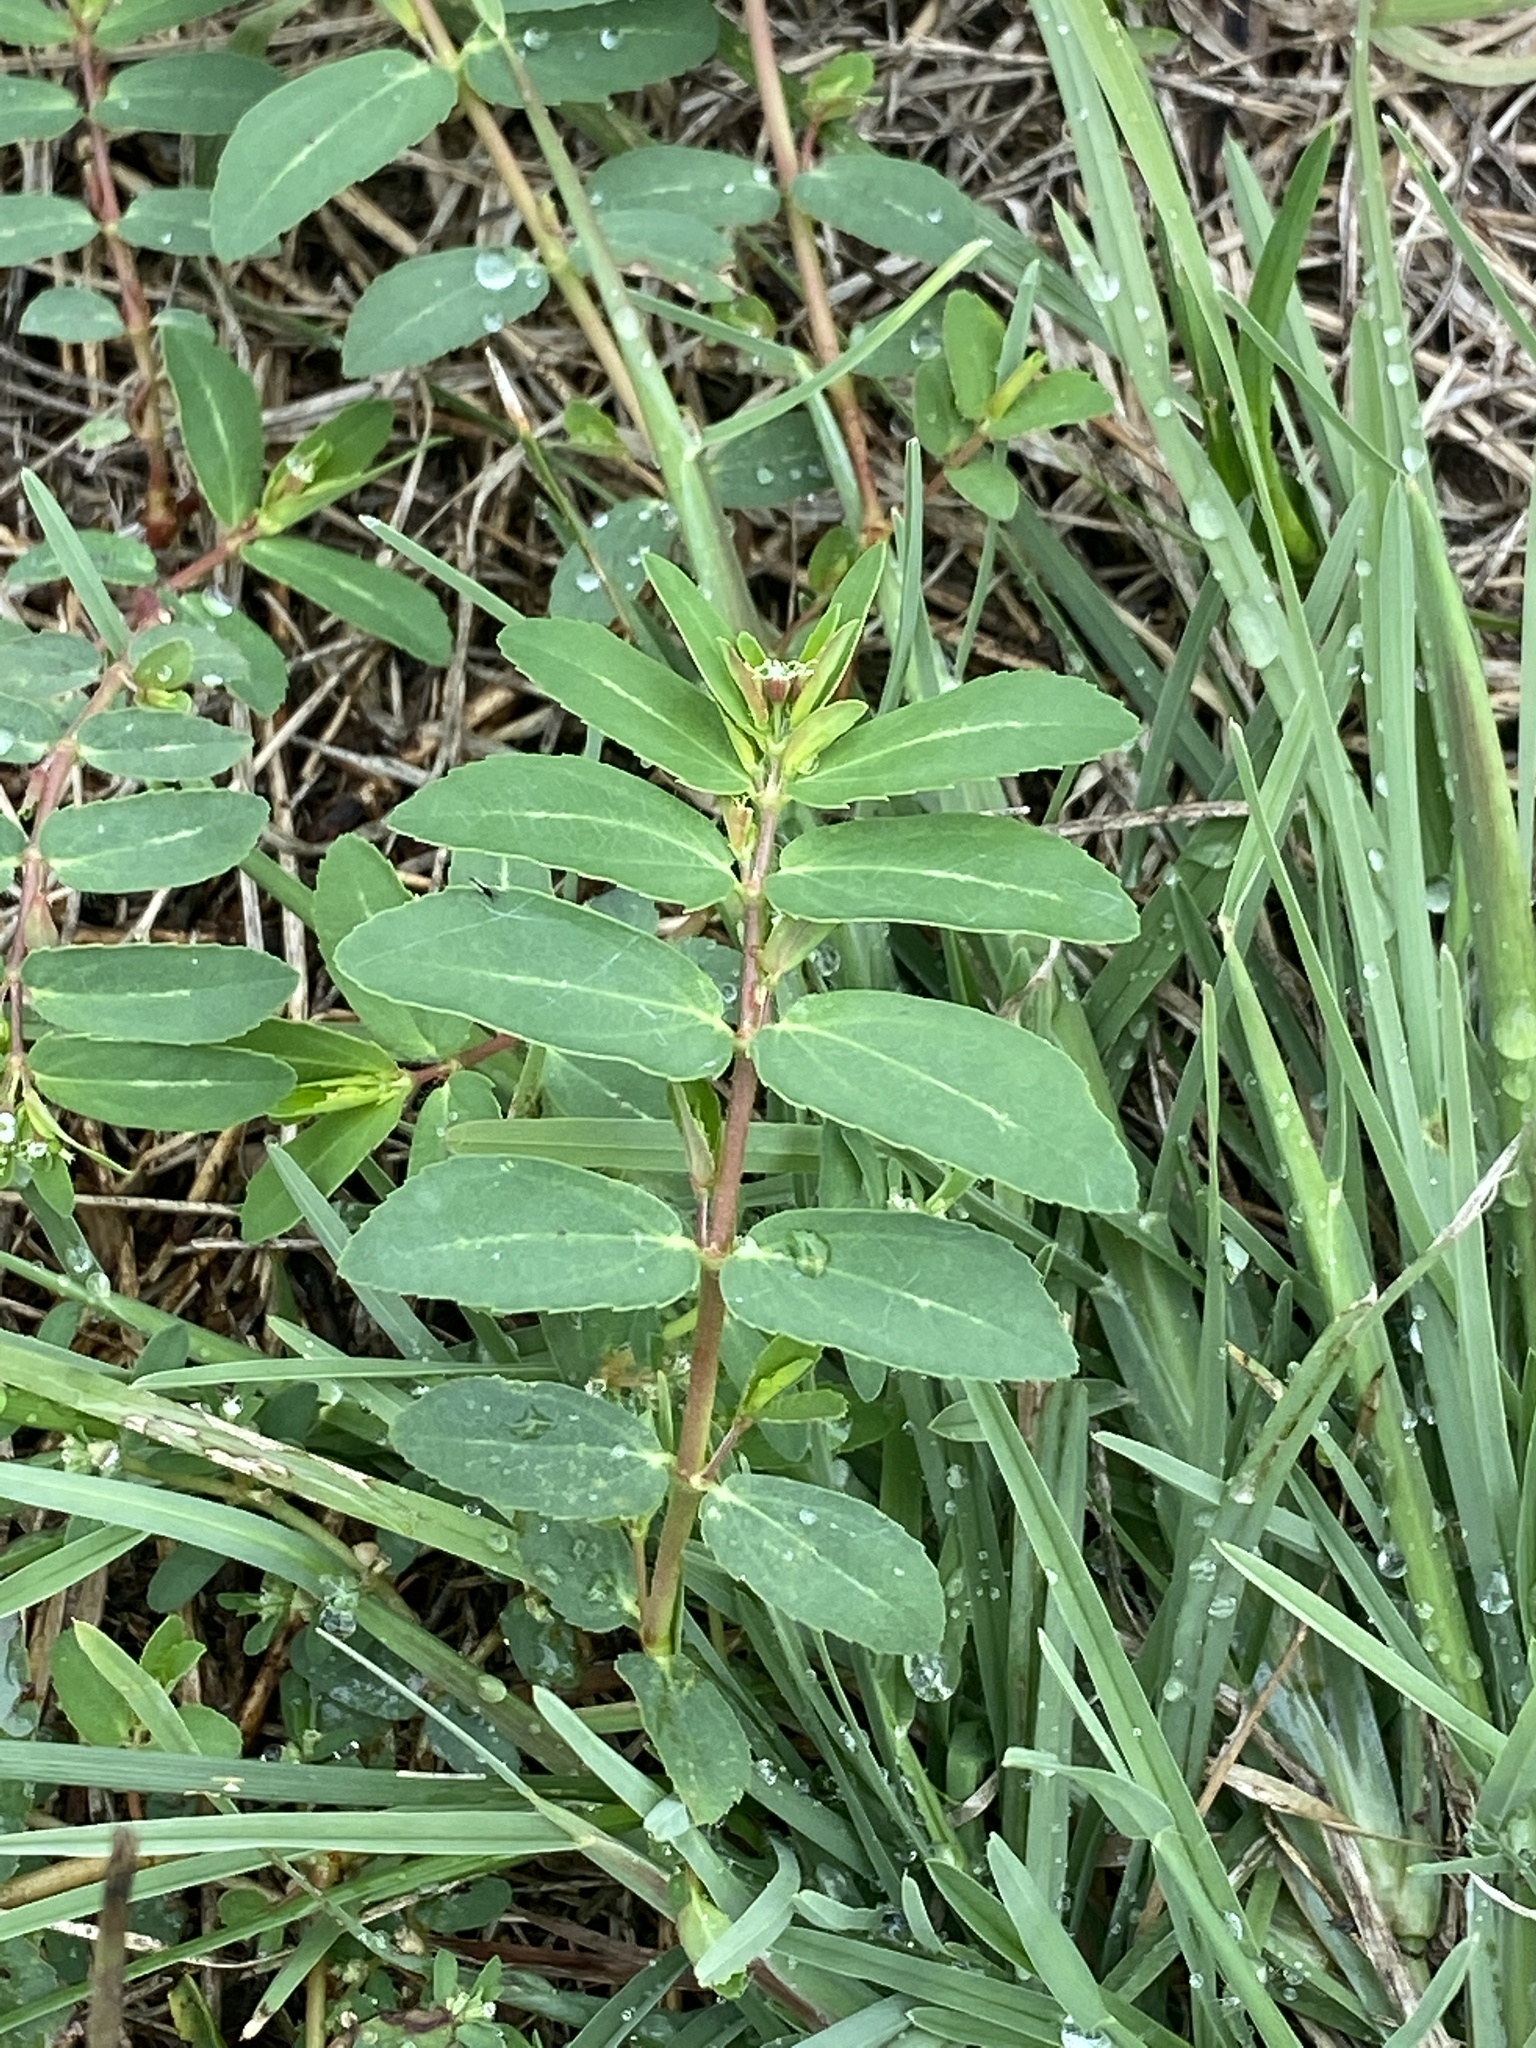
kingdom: Plantae
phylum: Tracheophyta
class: Magnoliopsida
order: Malpighiales
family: Euphorbiaceae
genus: Euphorbia
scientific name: Euphorbia nutans
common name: Eyebane
